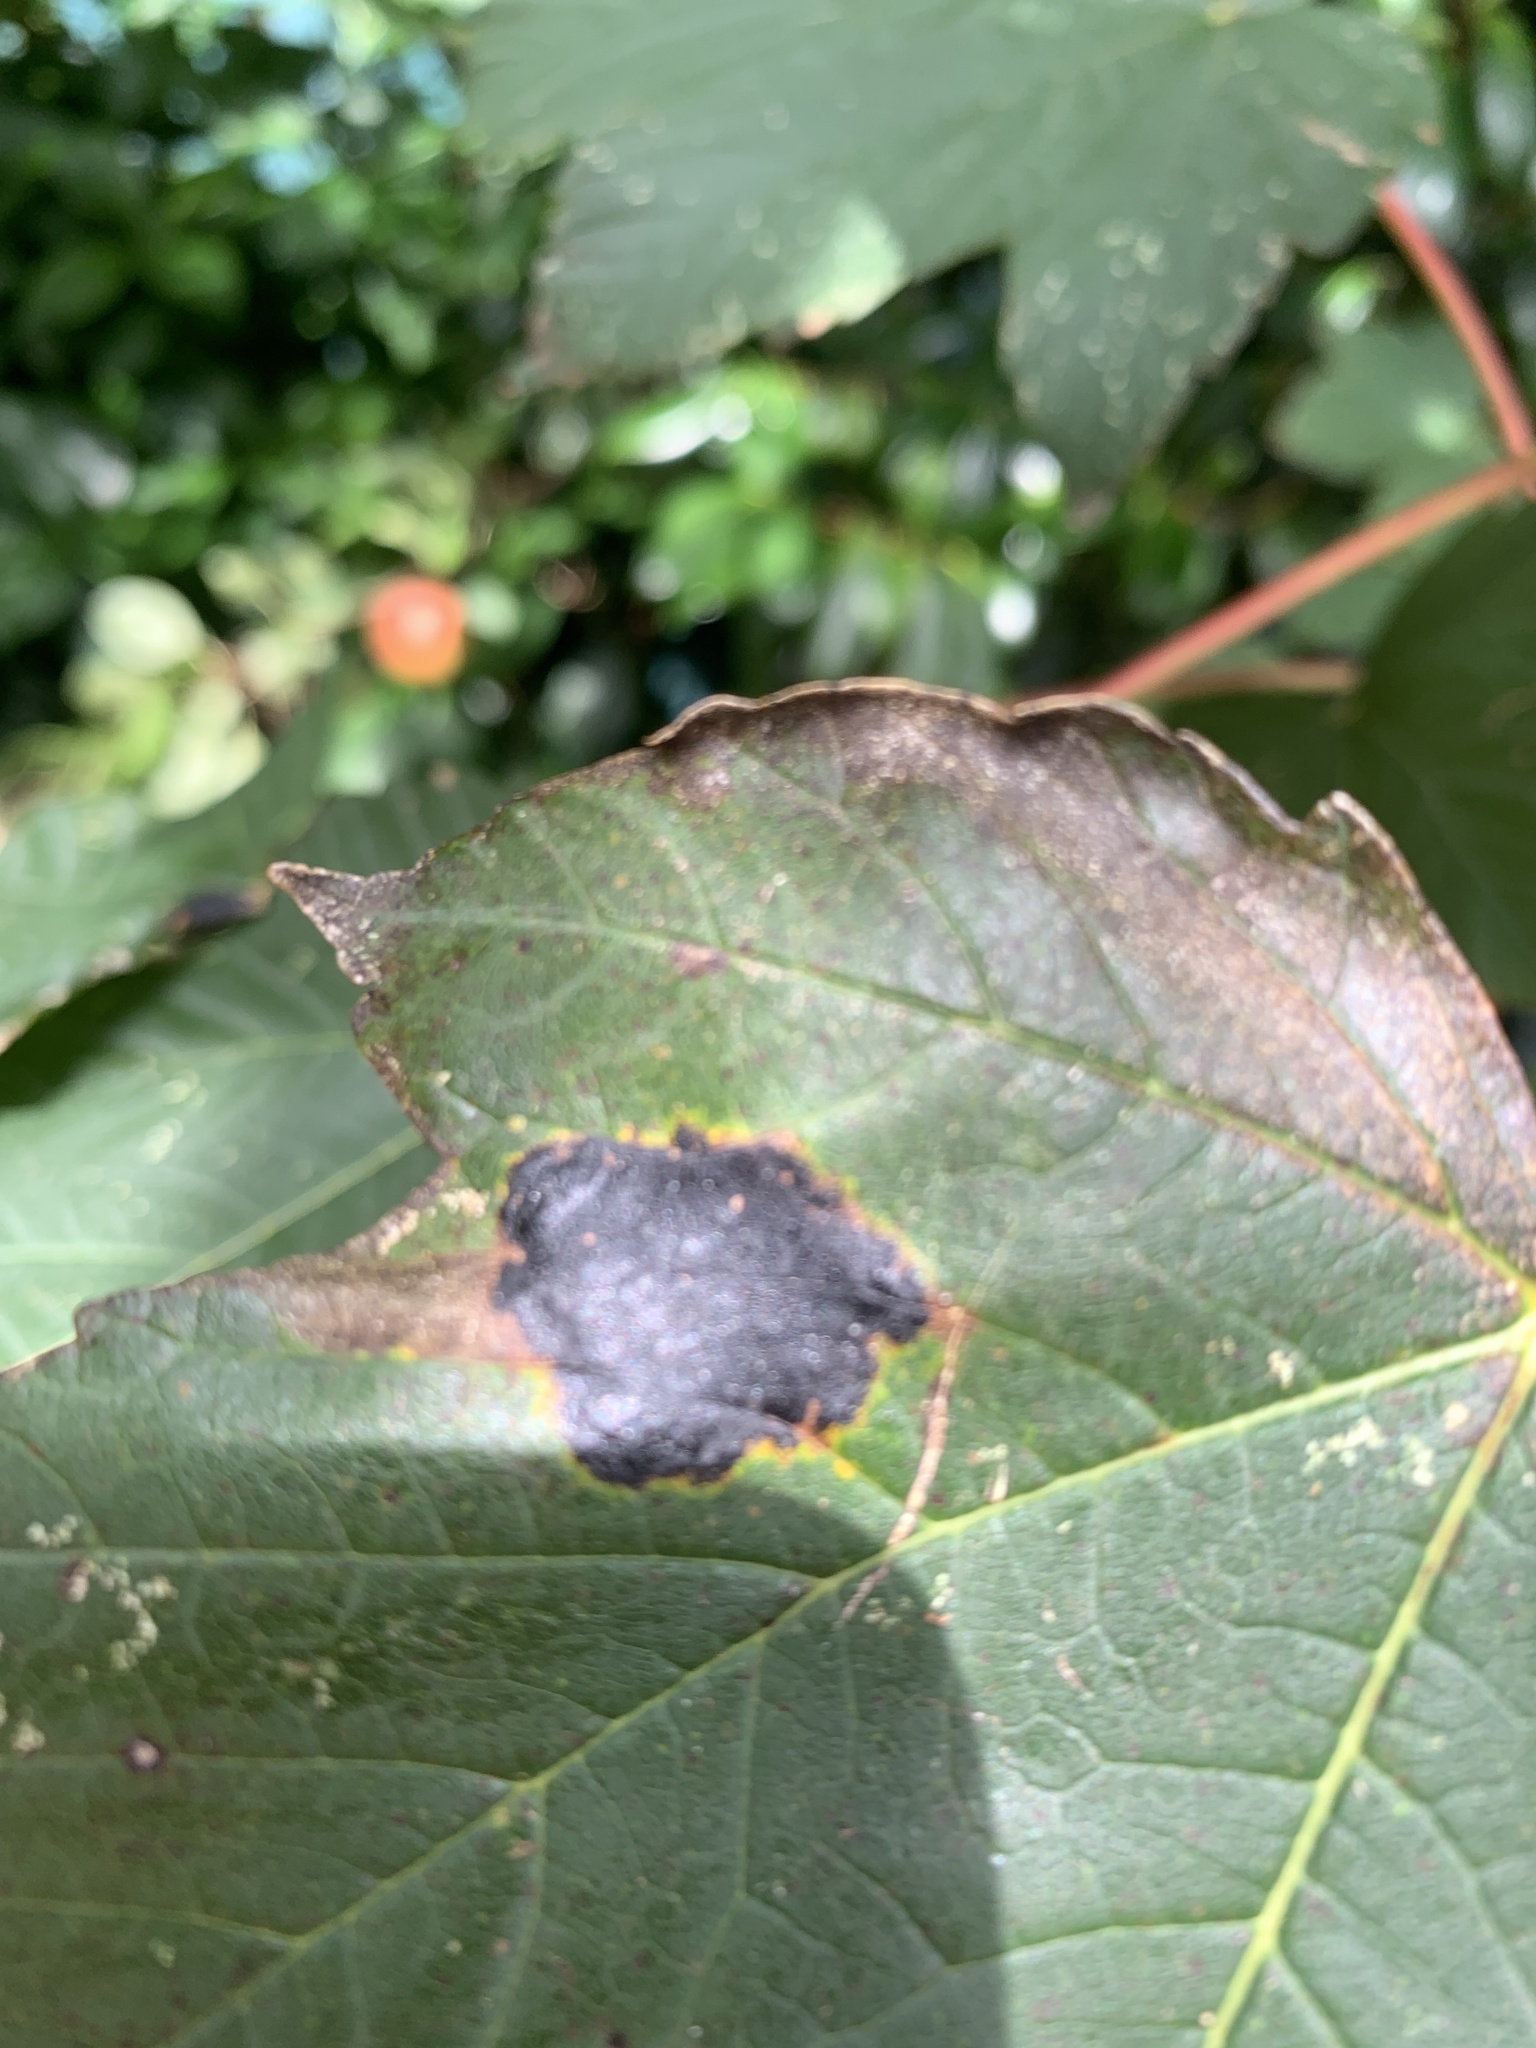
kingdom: Fungi
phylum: Ascomycota
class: Leotiomycetes
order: Rhytismatales
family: Rhytismataceae
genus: Rhytisma
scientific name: Rhytisma acerinum
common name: European tar spot
